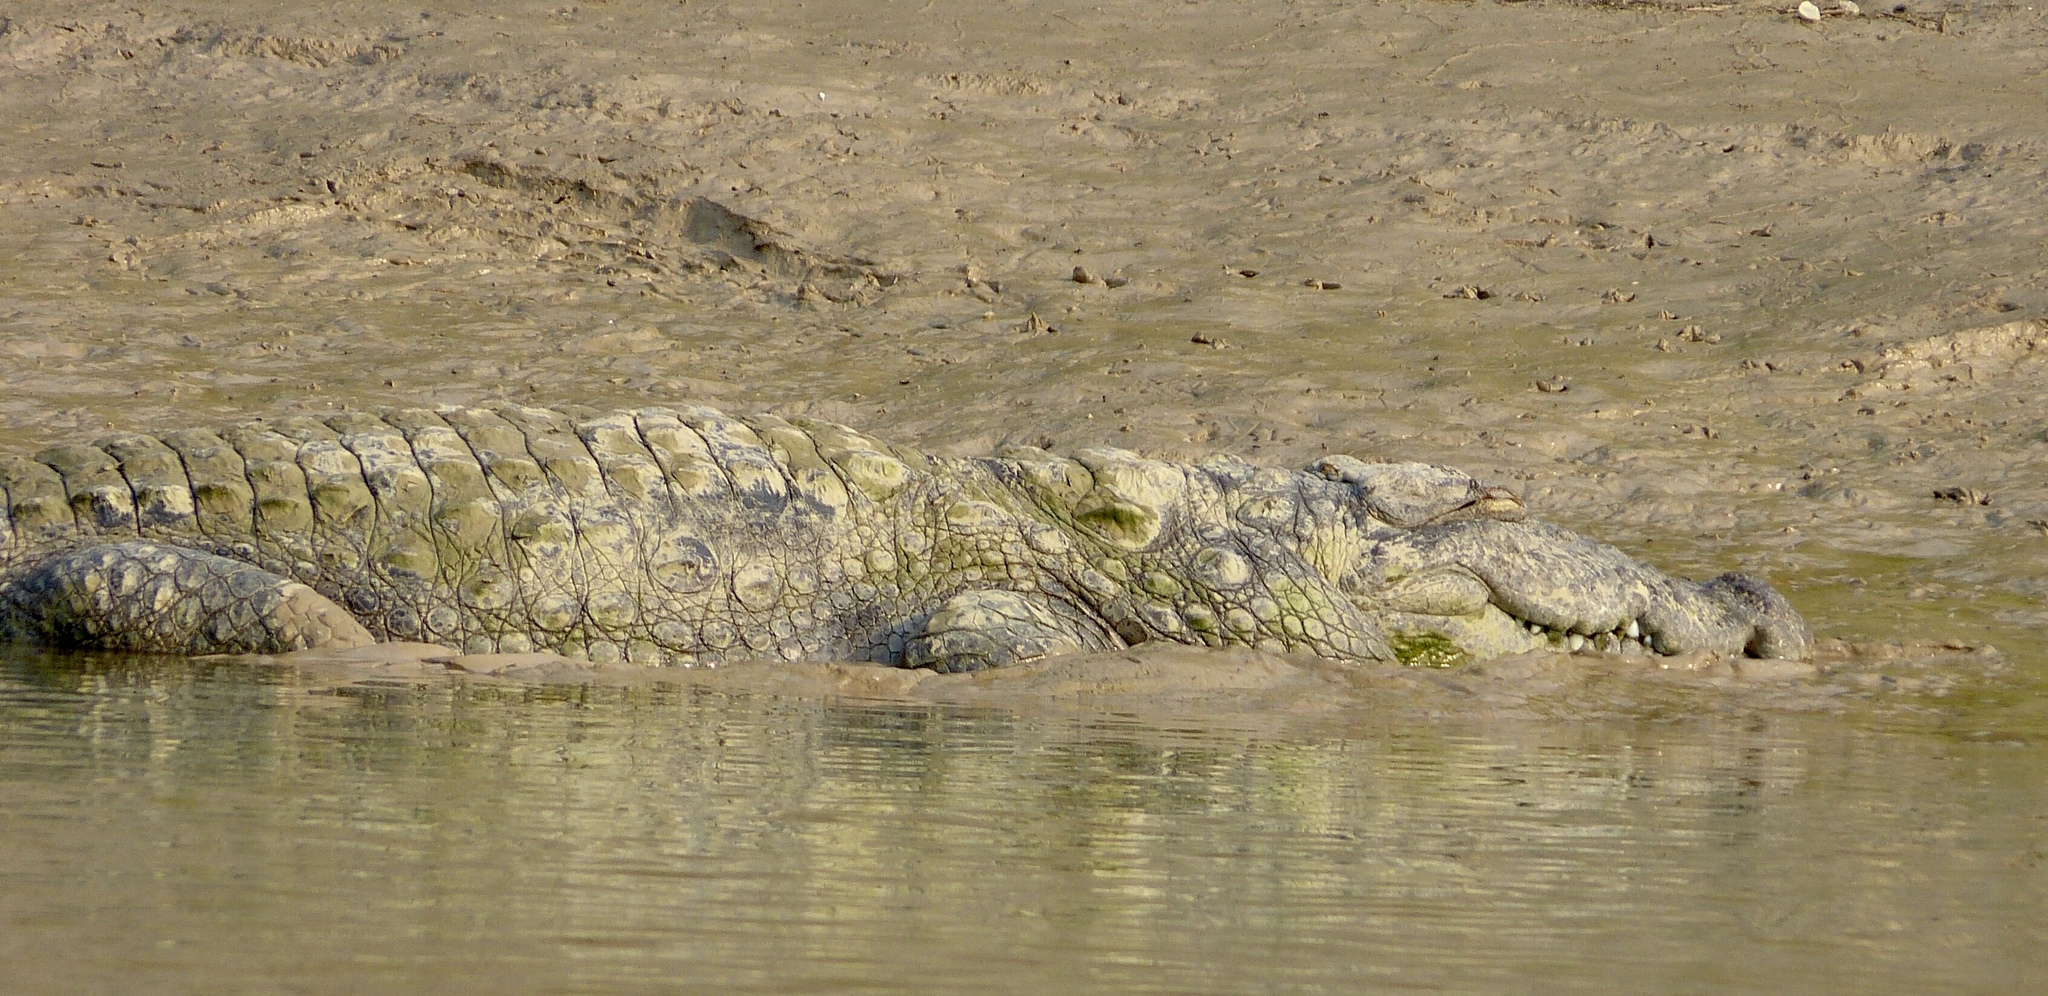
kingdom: Animalia
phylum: Chordata
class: Crocodylia
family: Crocodylidae
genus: Crocodylus
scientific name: Crocodylus palustris
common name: Mugger crocodile
